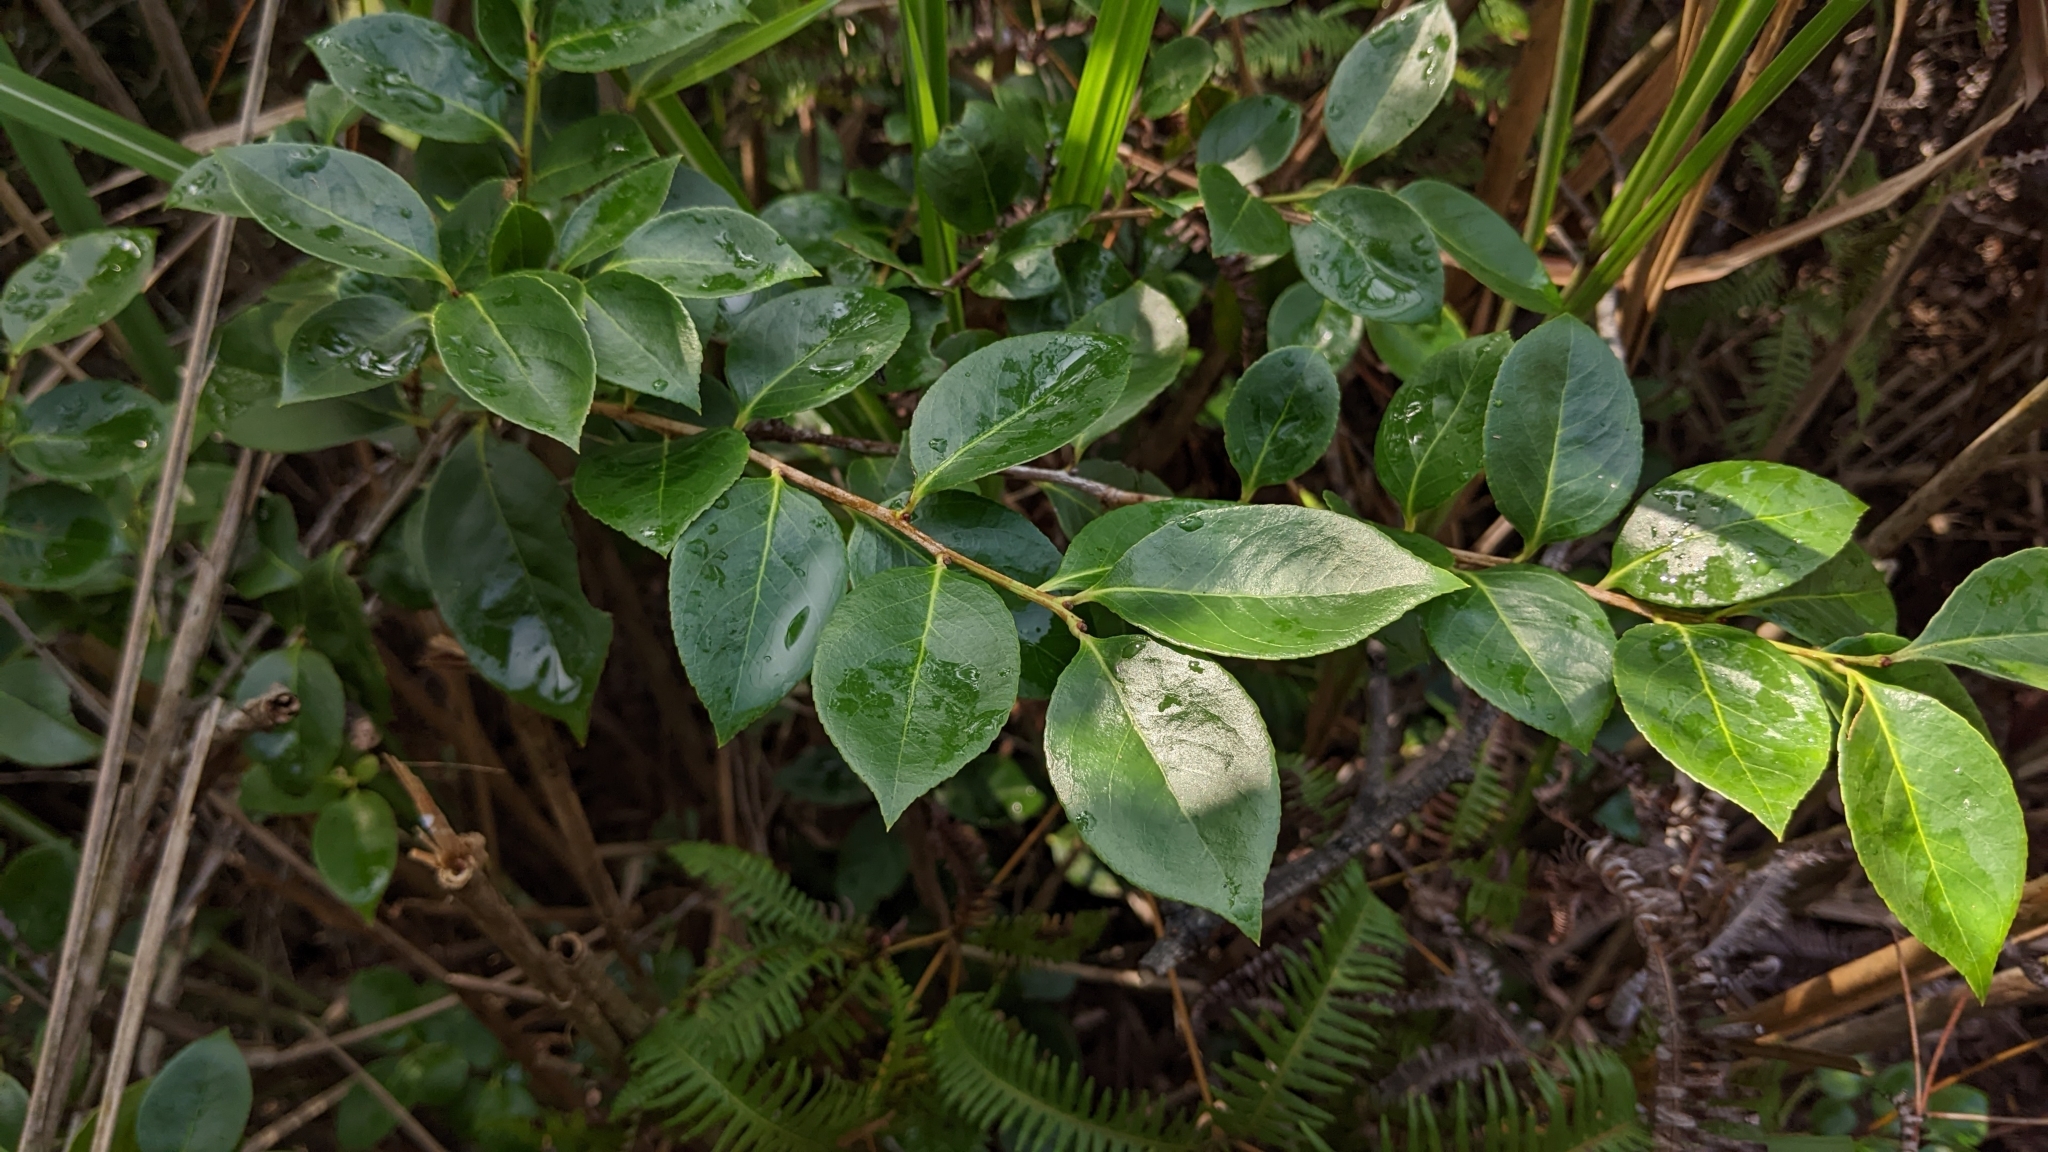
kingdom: Plantae
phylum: Tracheophyta
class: Magnoliopsida
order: Ericales
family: Ericaceae
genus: Vaccinium
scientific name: Vaccinium wrightii
